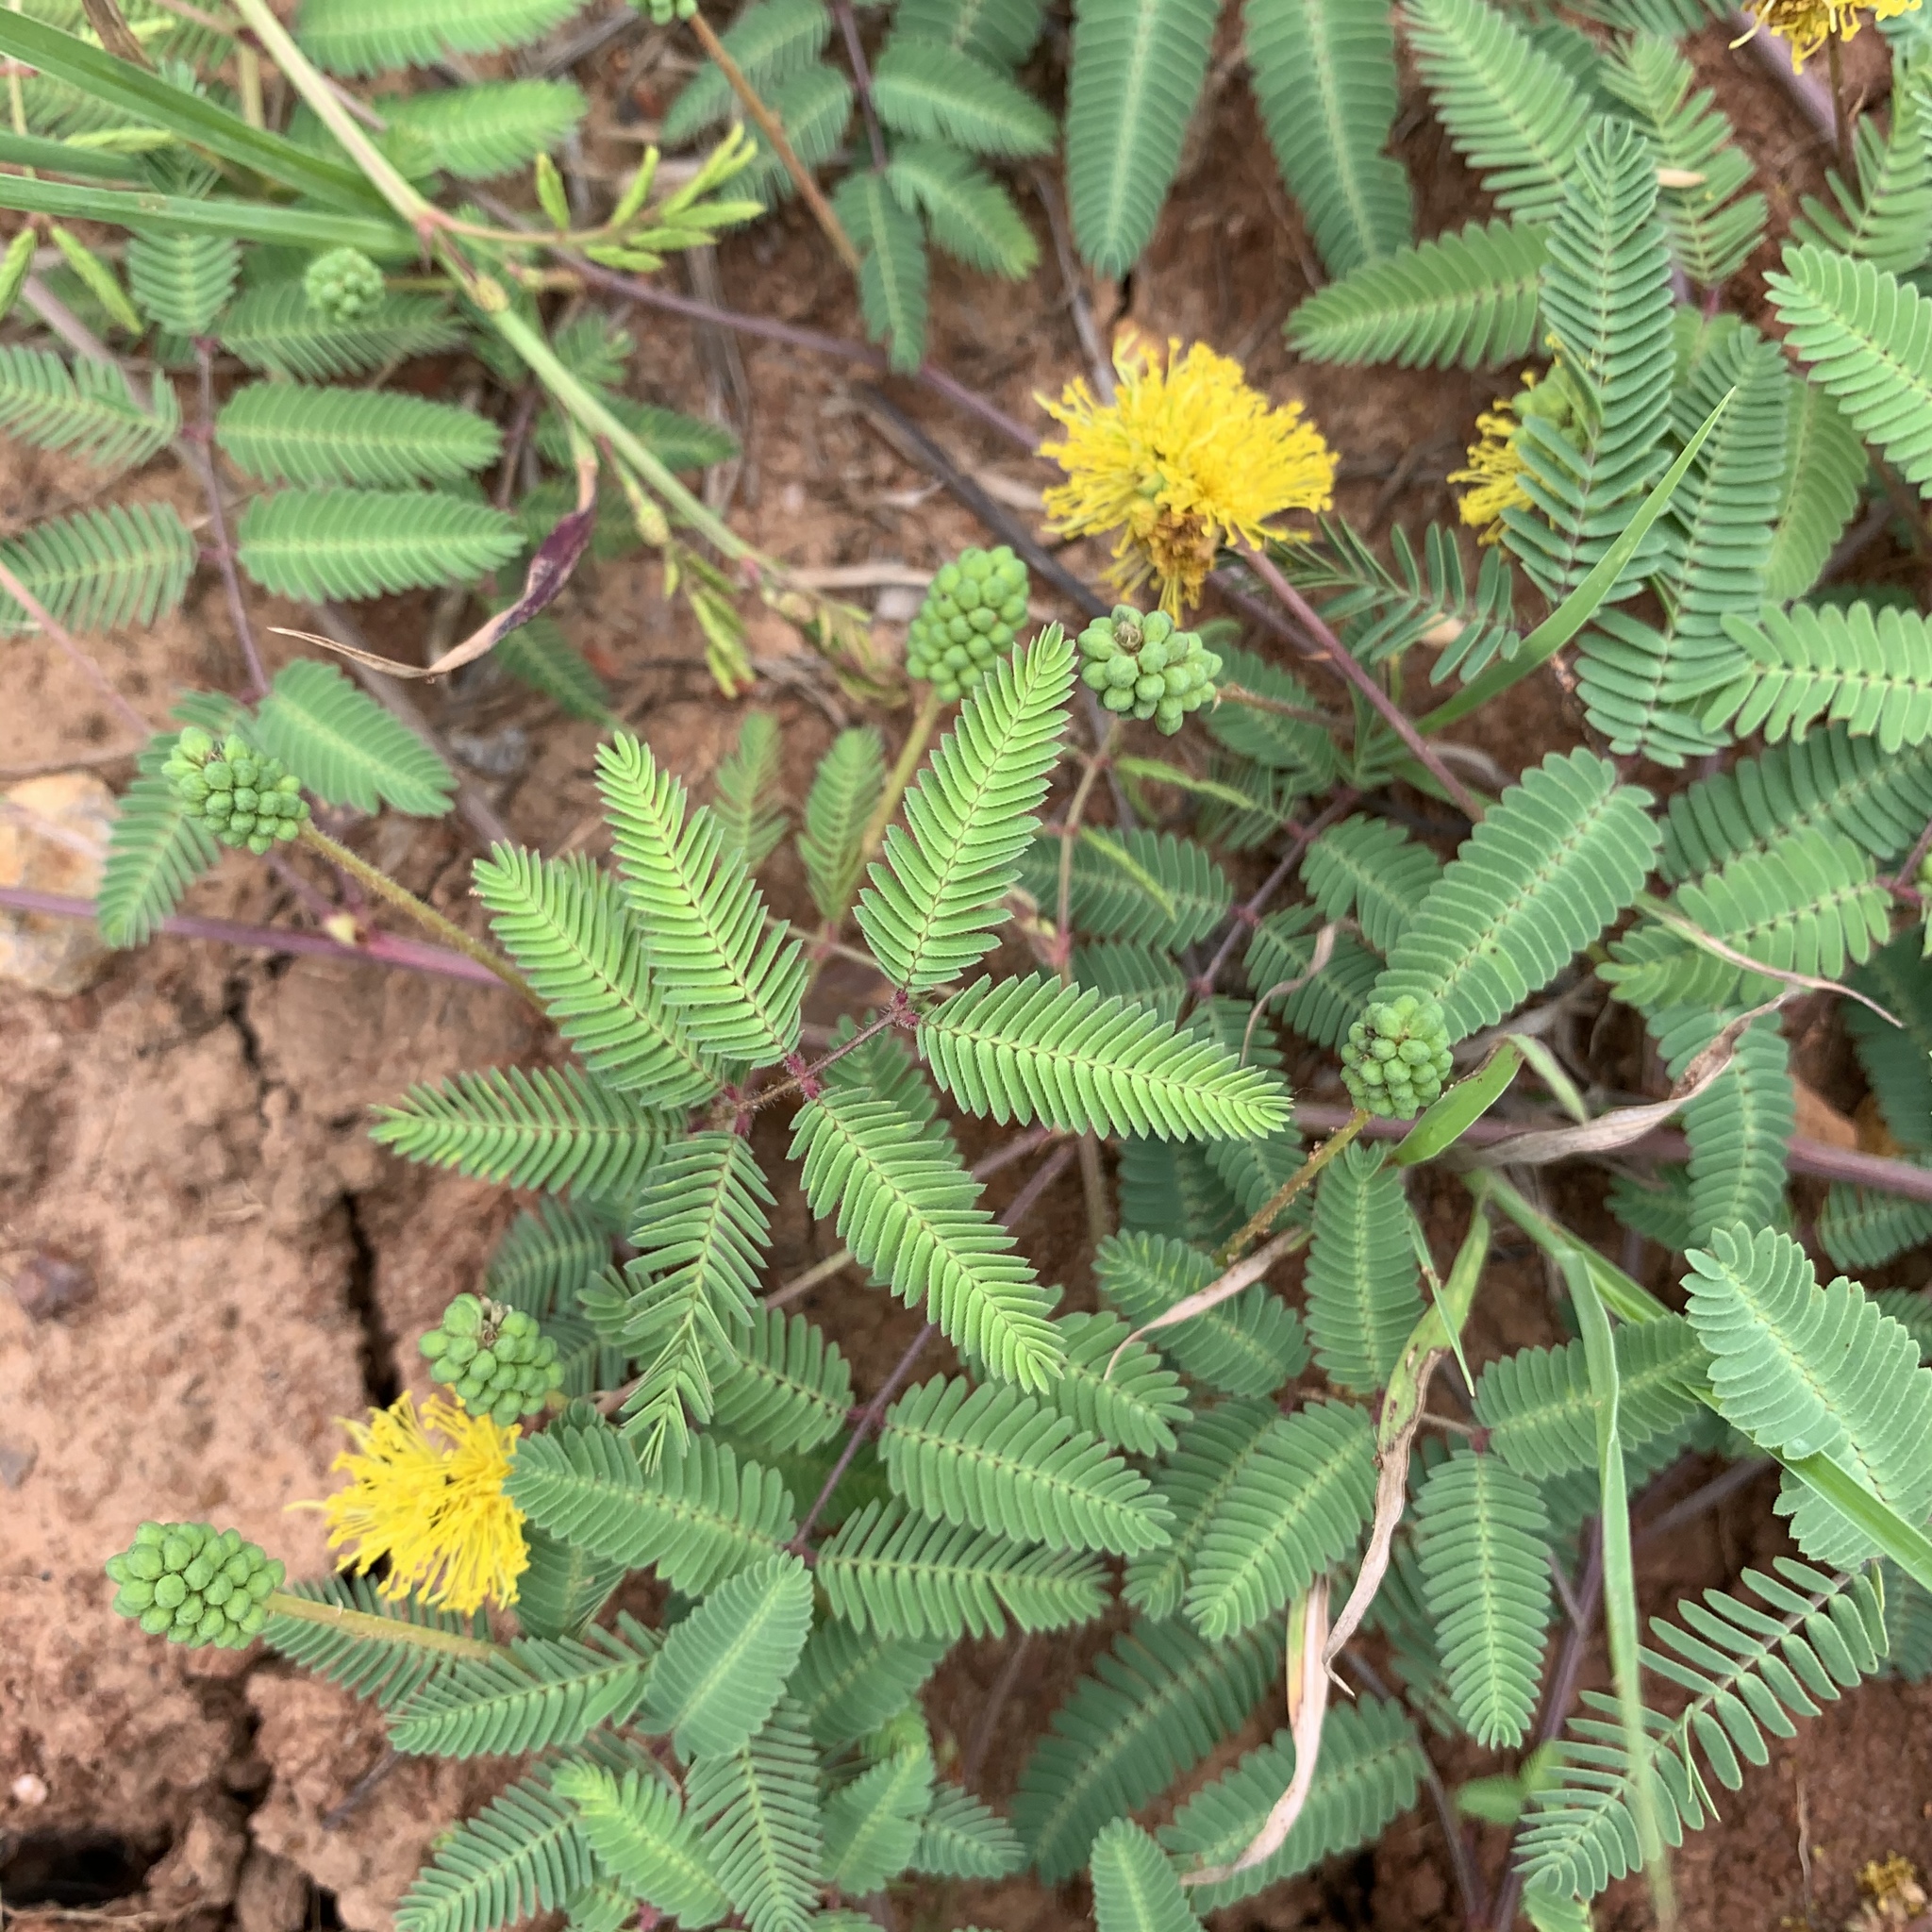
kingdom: Plantae
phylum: Tracheophyta
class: Magnoliopsida
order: Fabales
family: Fabaceae
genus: Neptunia
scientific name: Neptunia lutea
